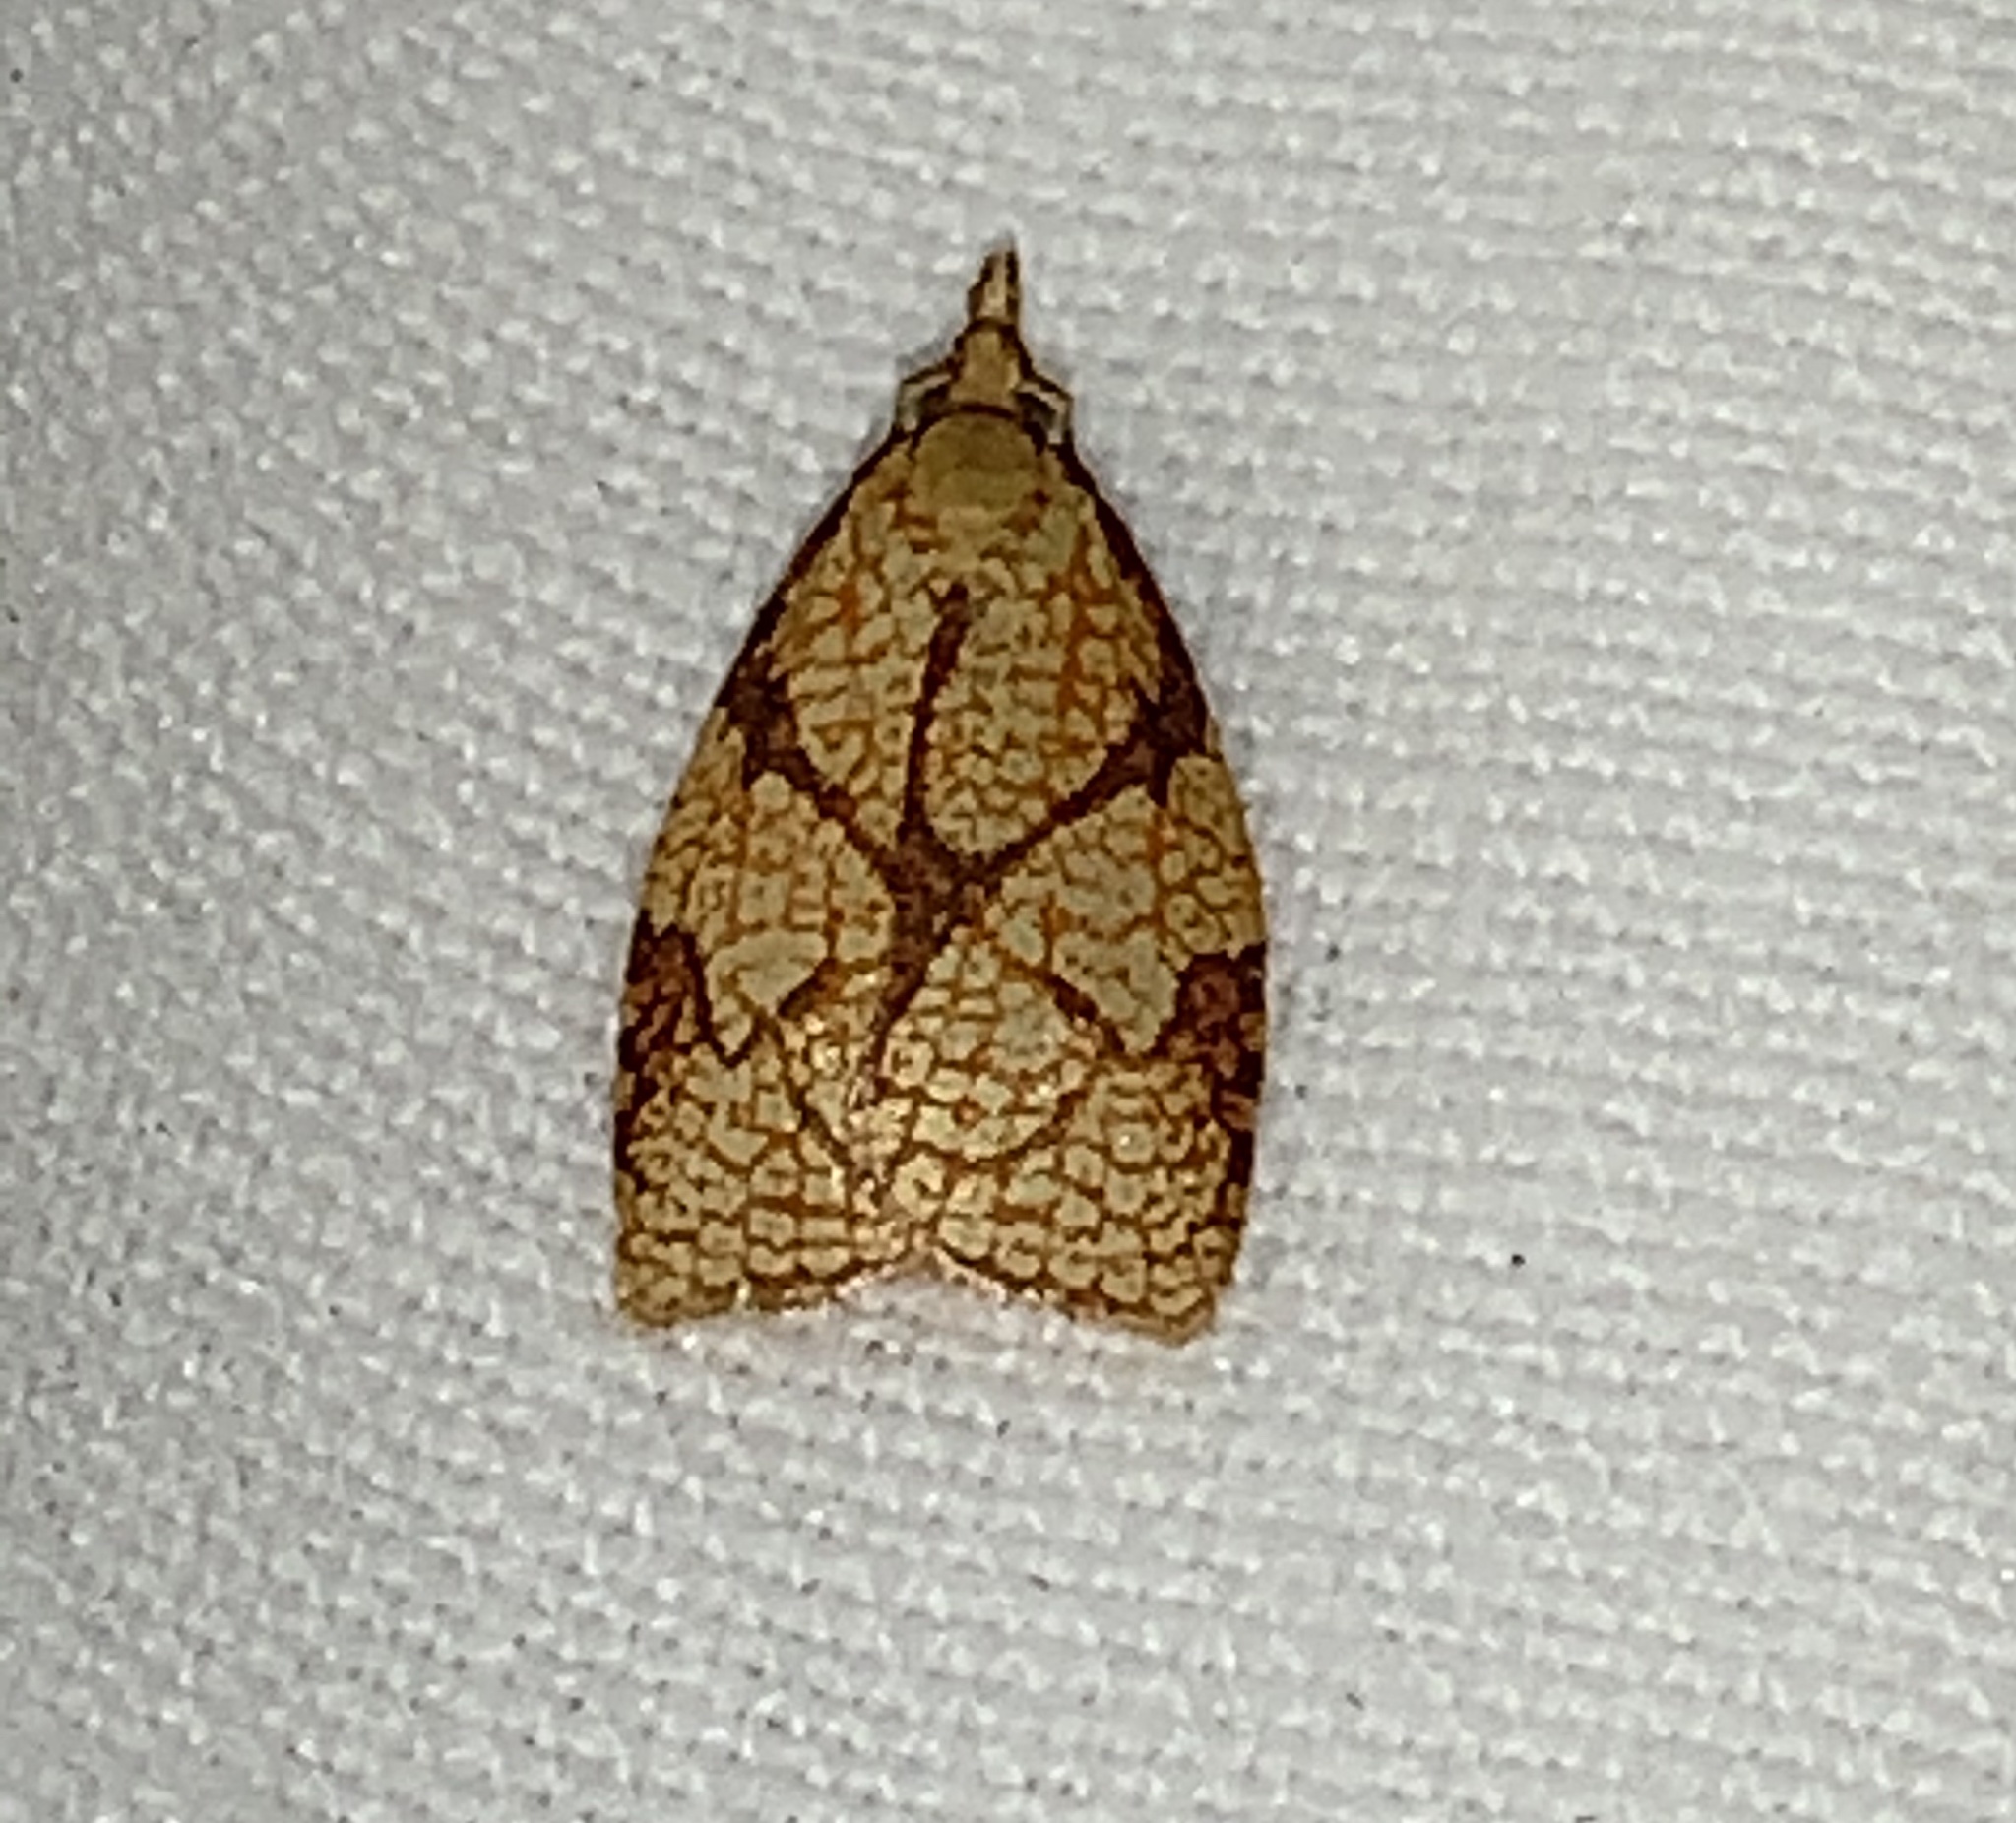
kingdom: Animalia
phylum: Arthropoda
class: Insecta
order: Lepidoptera
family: Tortricidae
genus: Cenopis
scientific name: Cenopis reticulatana
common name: Reticulated fruitworm moth
